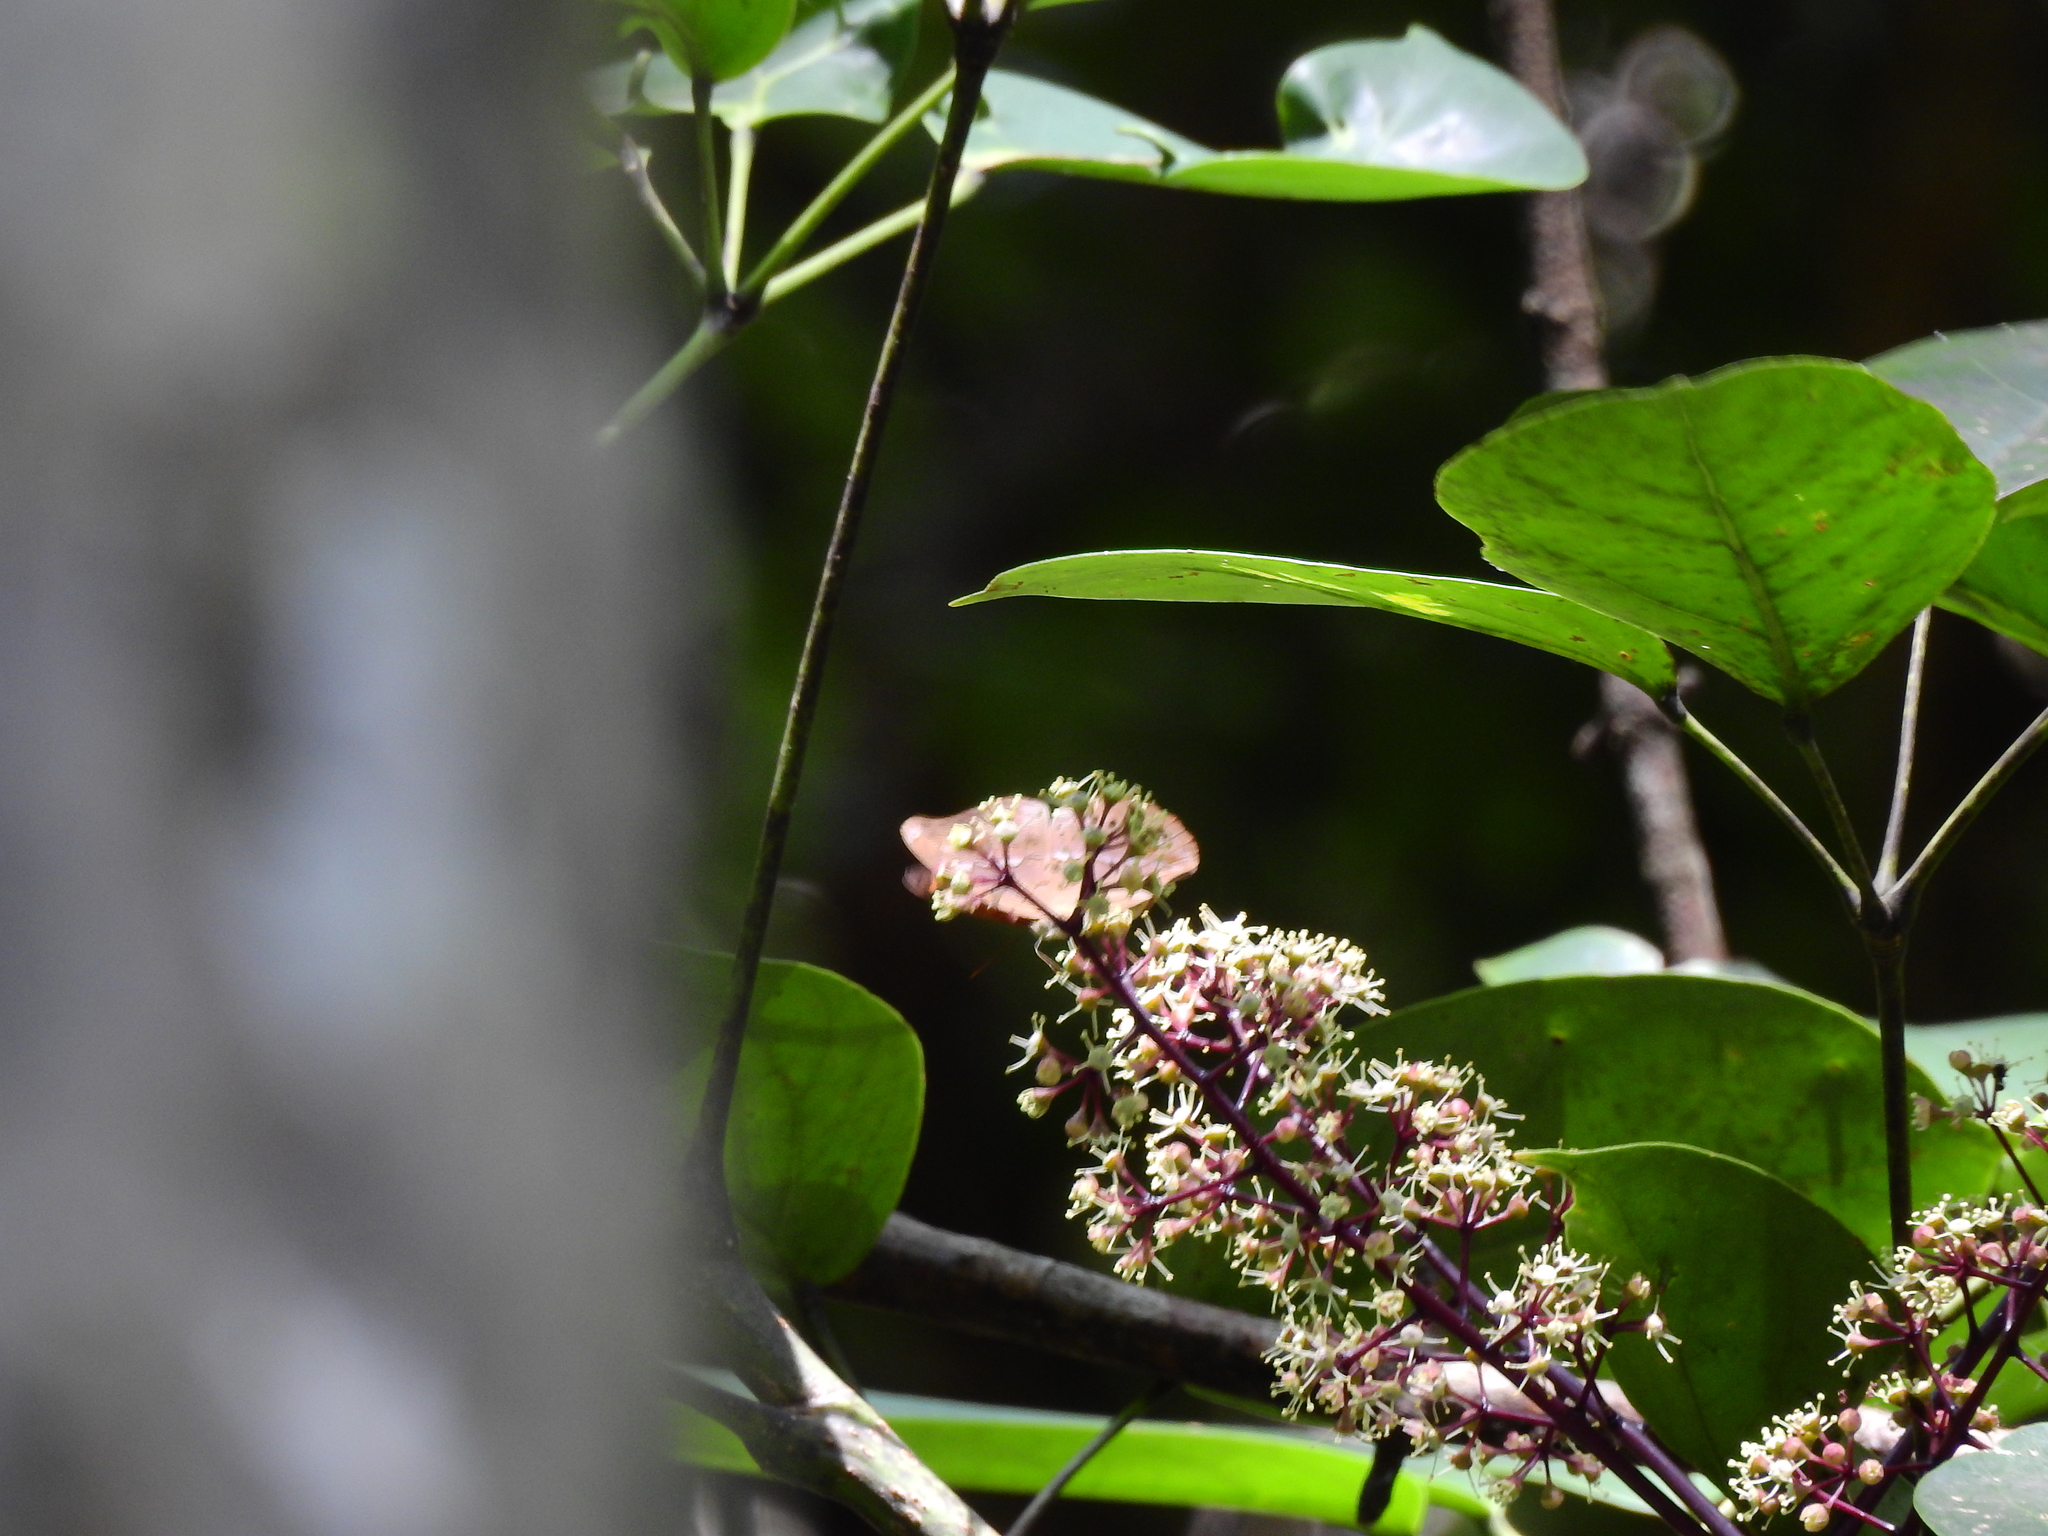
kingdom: Animalia
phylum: Arthropoda
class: Insecta
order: Lepidoptera
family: Nymphalidae
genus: Cirrochroa
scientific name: Cirrochroa thais
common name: Tamil yeoman
